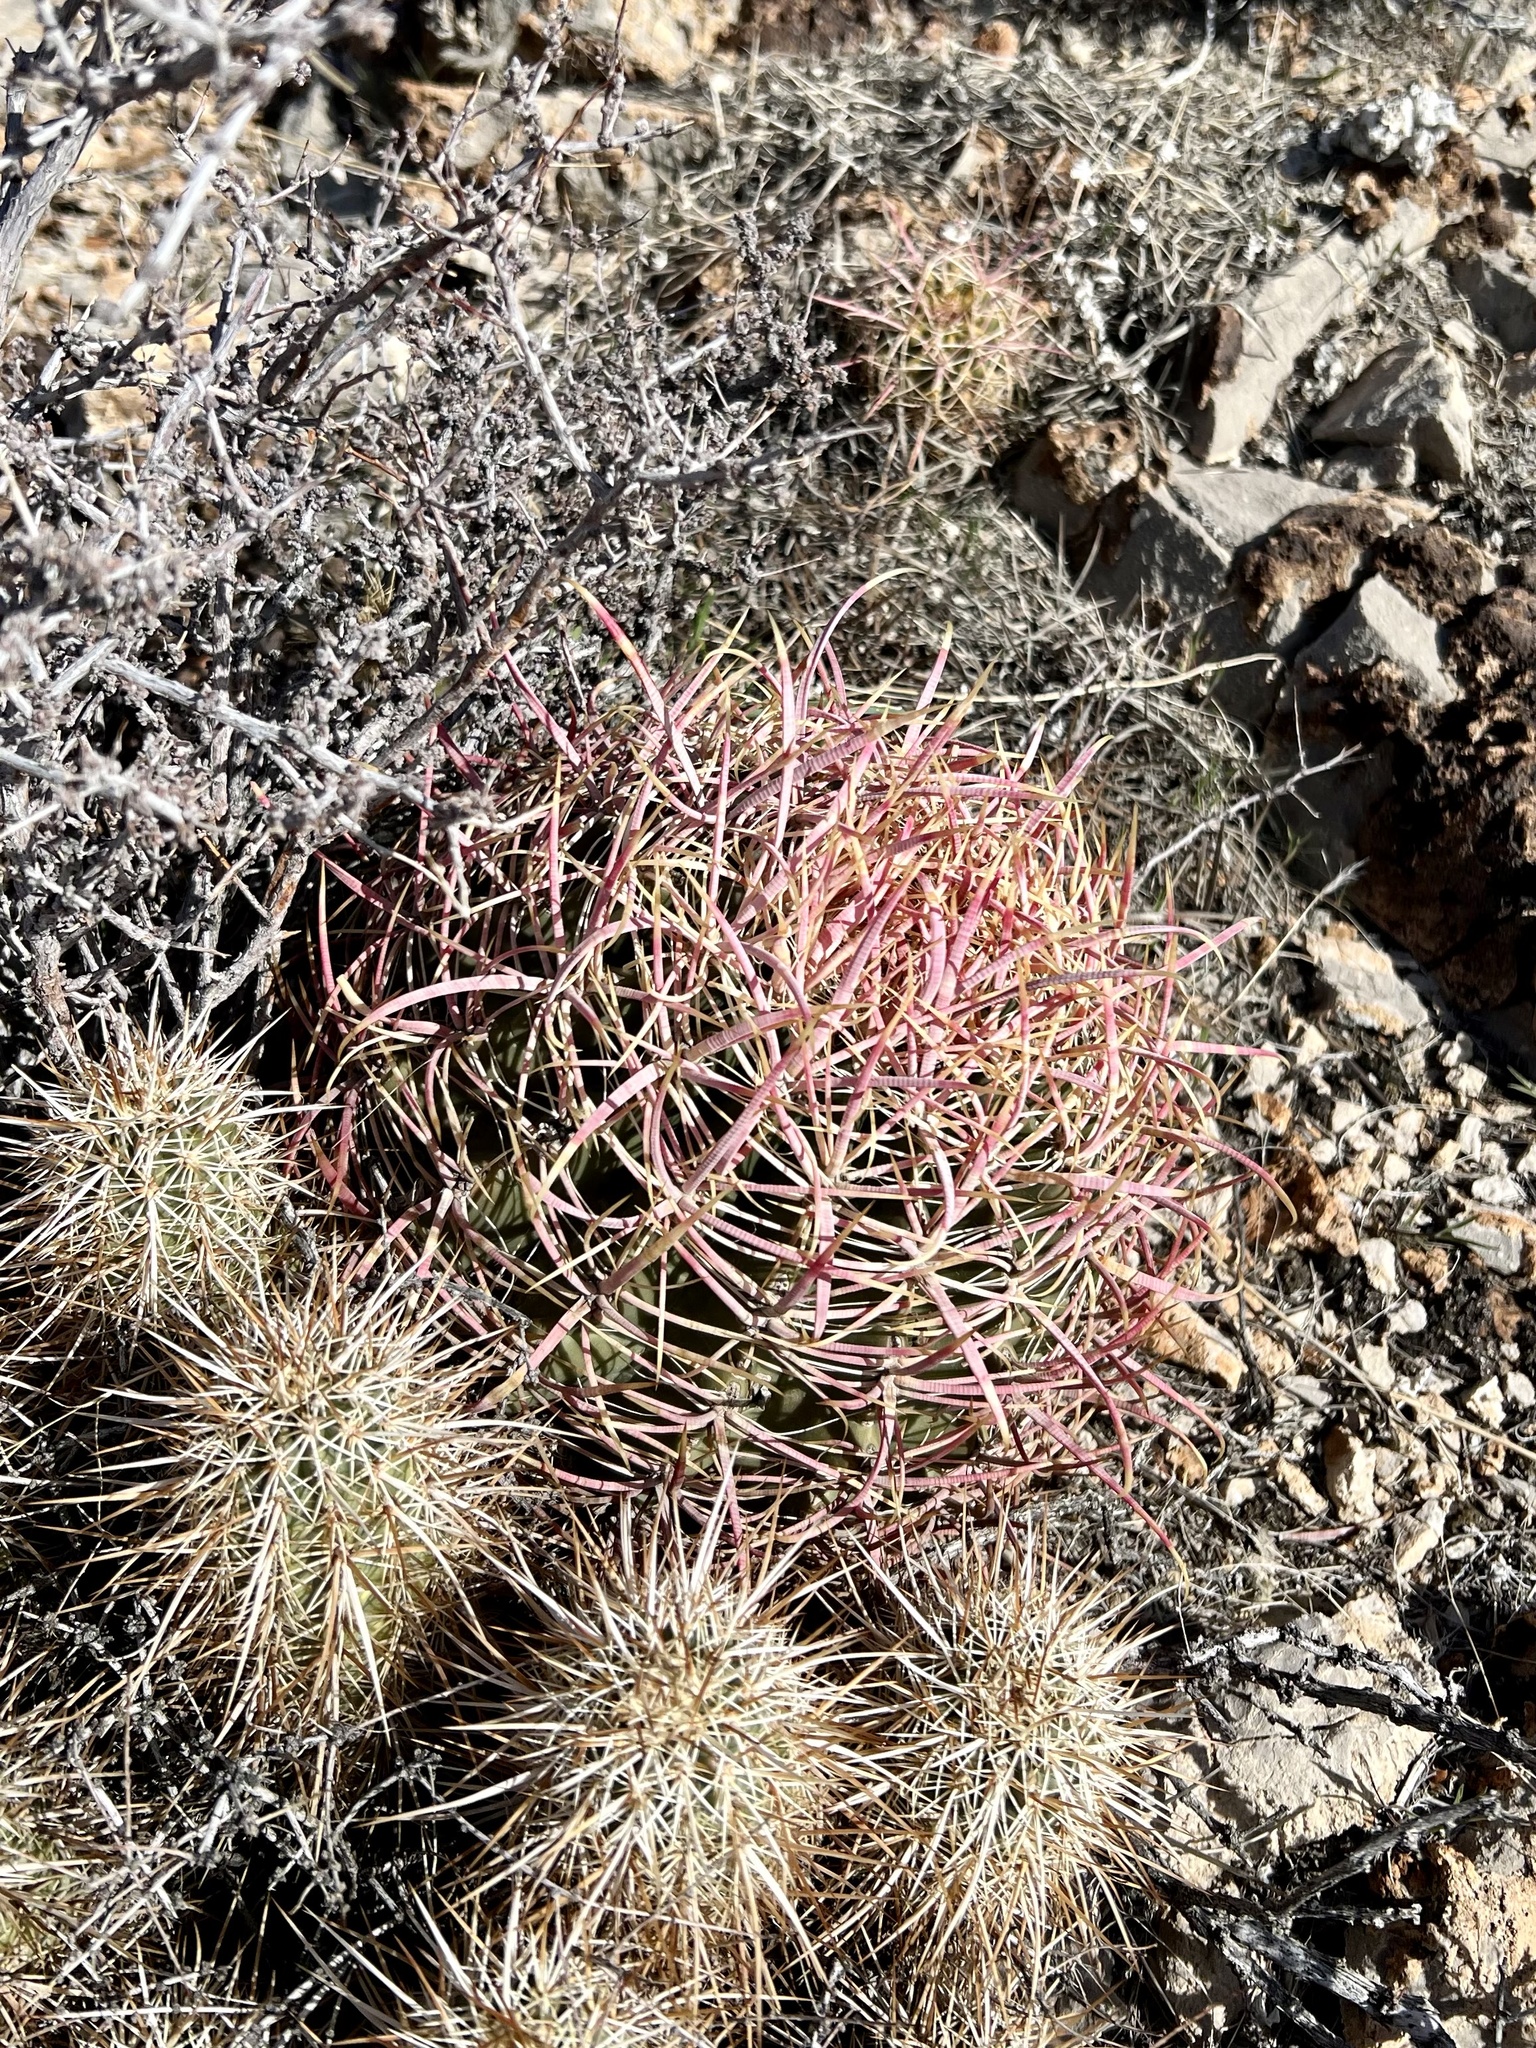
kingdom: Plantae
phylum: Tracheophyta
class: Magnoliopsida
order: Caryophyllales
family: Cactaceae
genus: Ferocactus
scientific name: Ferocactus cylindraceus
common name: California barrel cactus
